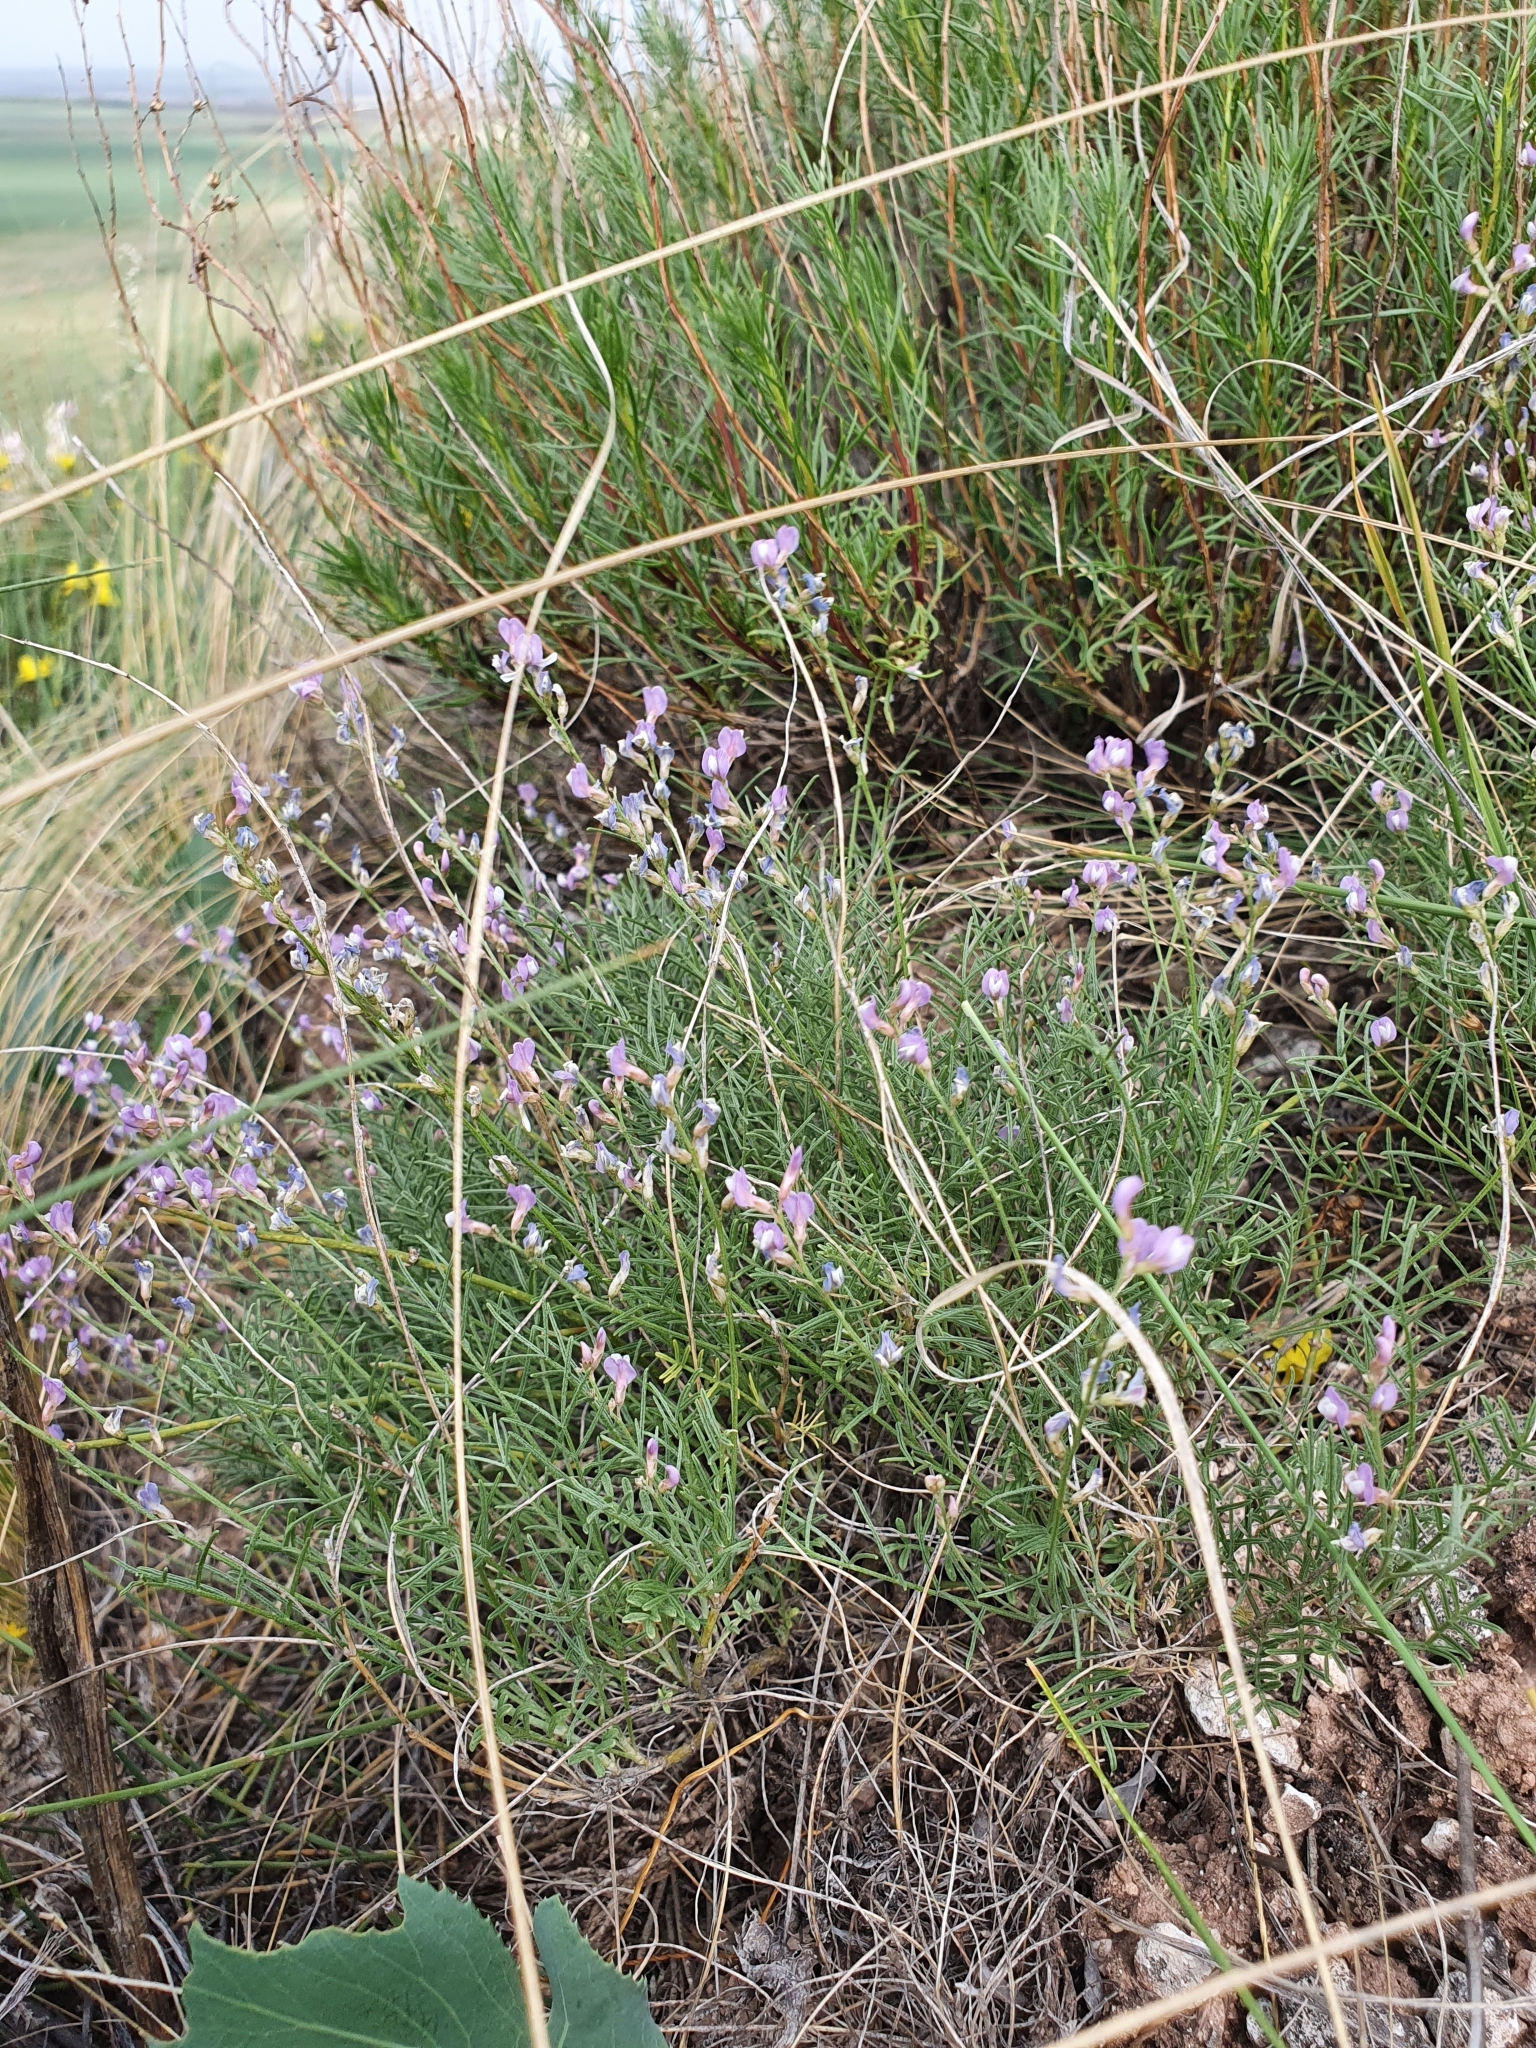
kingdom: Plantae
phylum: Tracheophyta
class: Magnoliopsida
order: Fabales
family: Fabaceae
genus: Astragalus
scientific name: Astragalus
